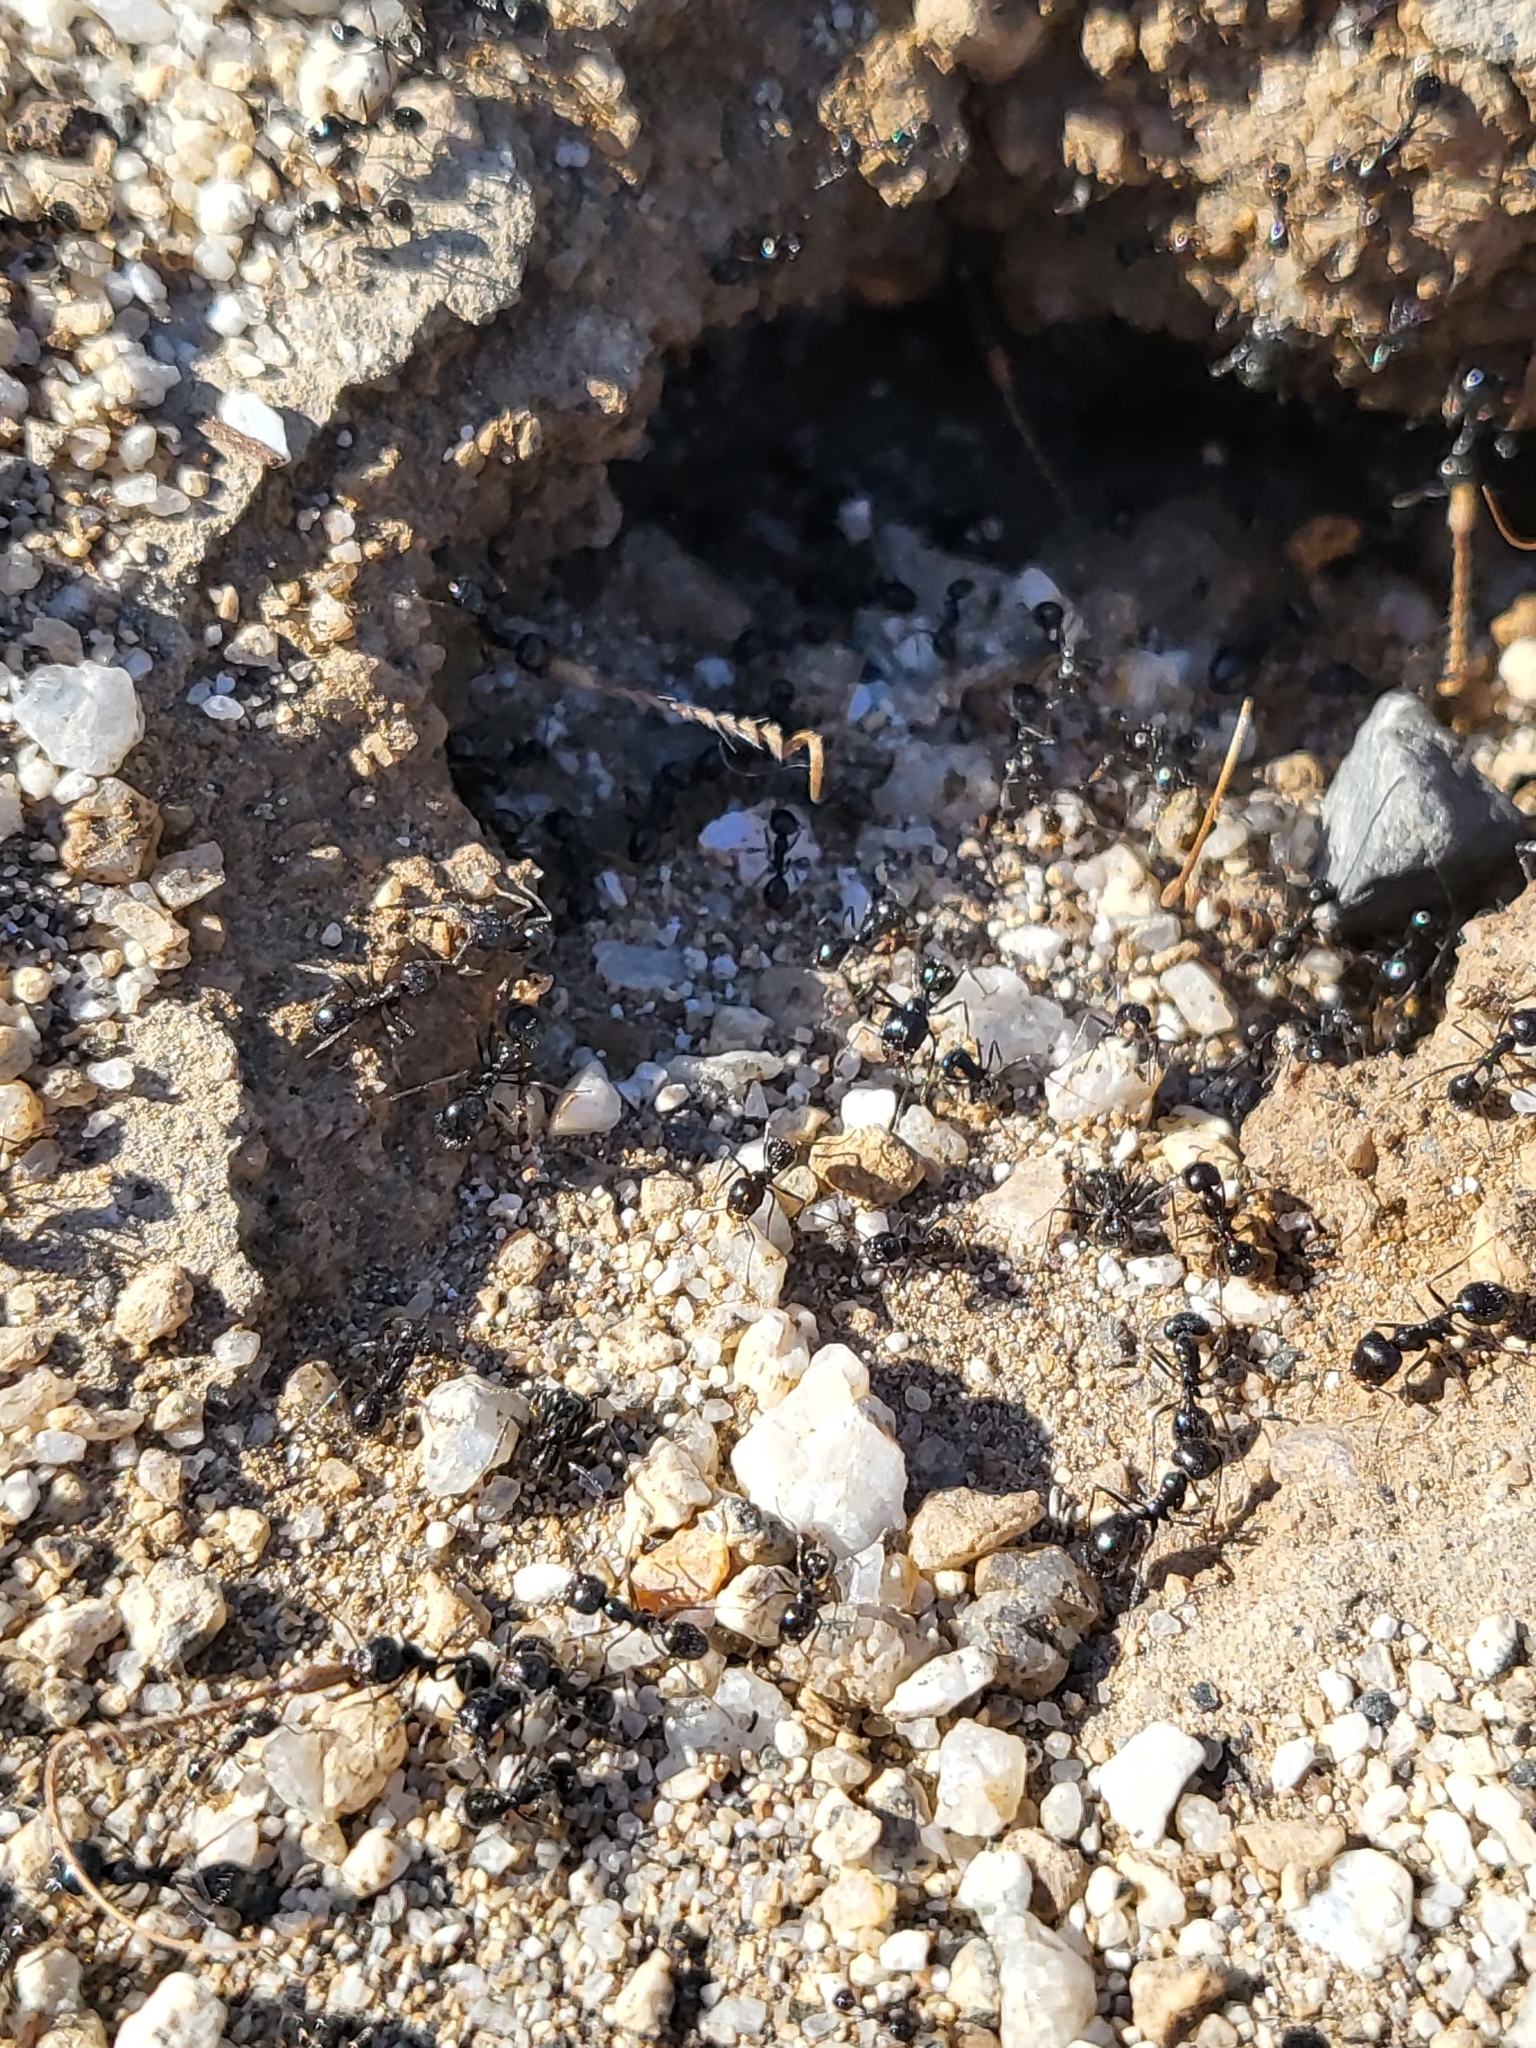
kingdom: Animalia
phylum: Arthropoda
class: Insecta
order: Hymenoptera
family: Formicidae
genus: Messor
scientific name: Messor pergandei
